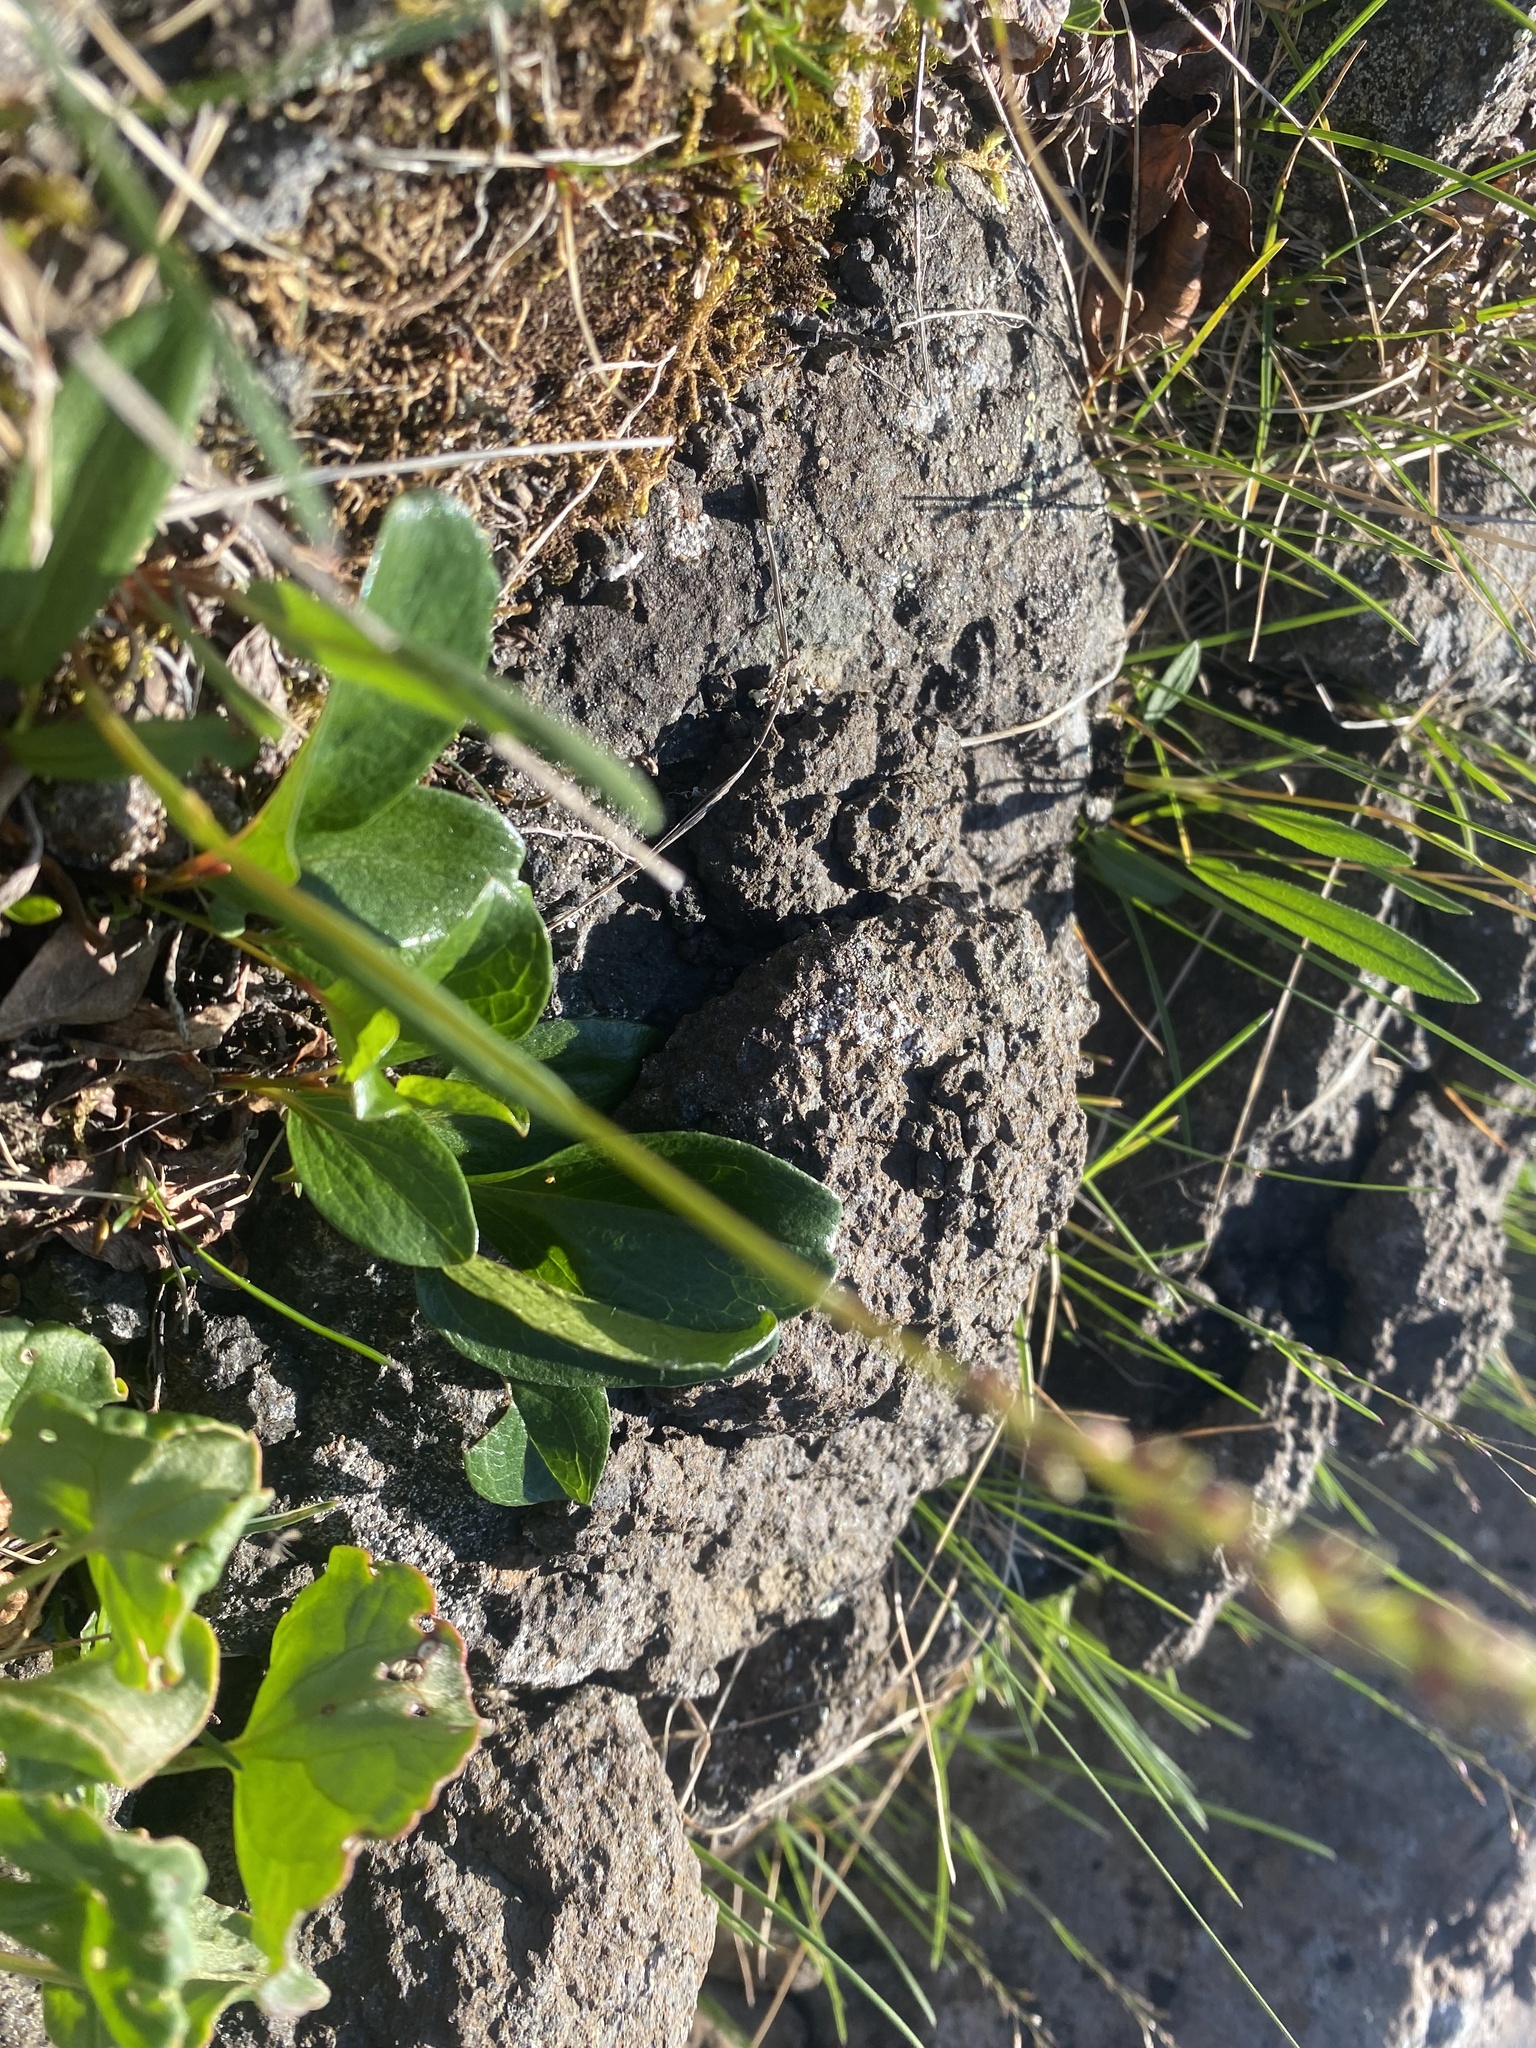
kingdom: Plantae
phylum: Tracheophyta
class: Magnoliopsida
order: Malpighiales
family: Salicaceae
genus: Salix
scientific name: Salix arctica
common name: Arctic willow
